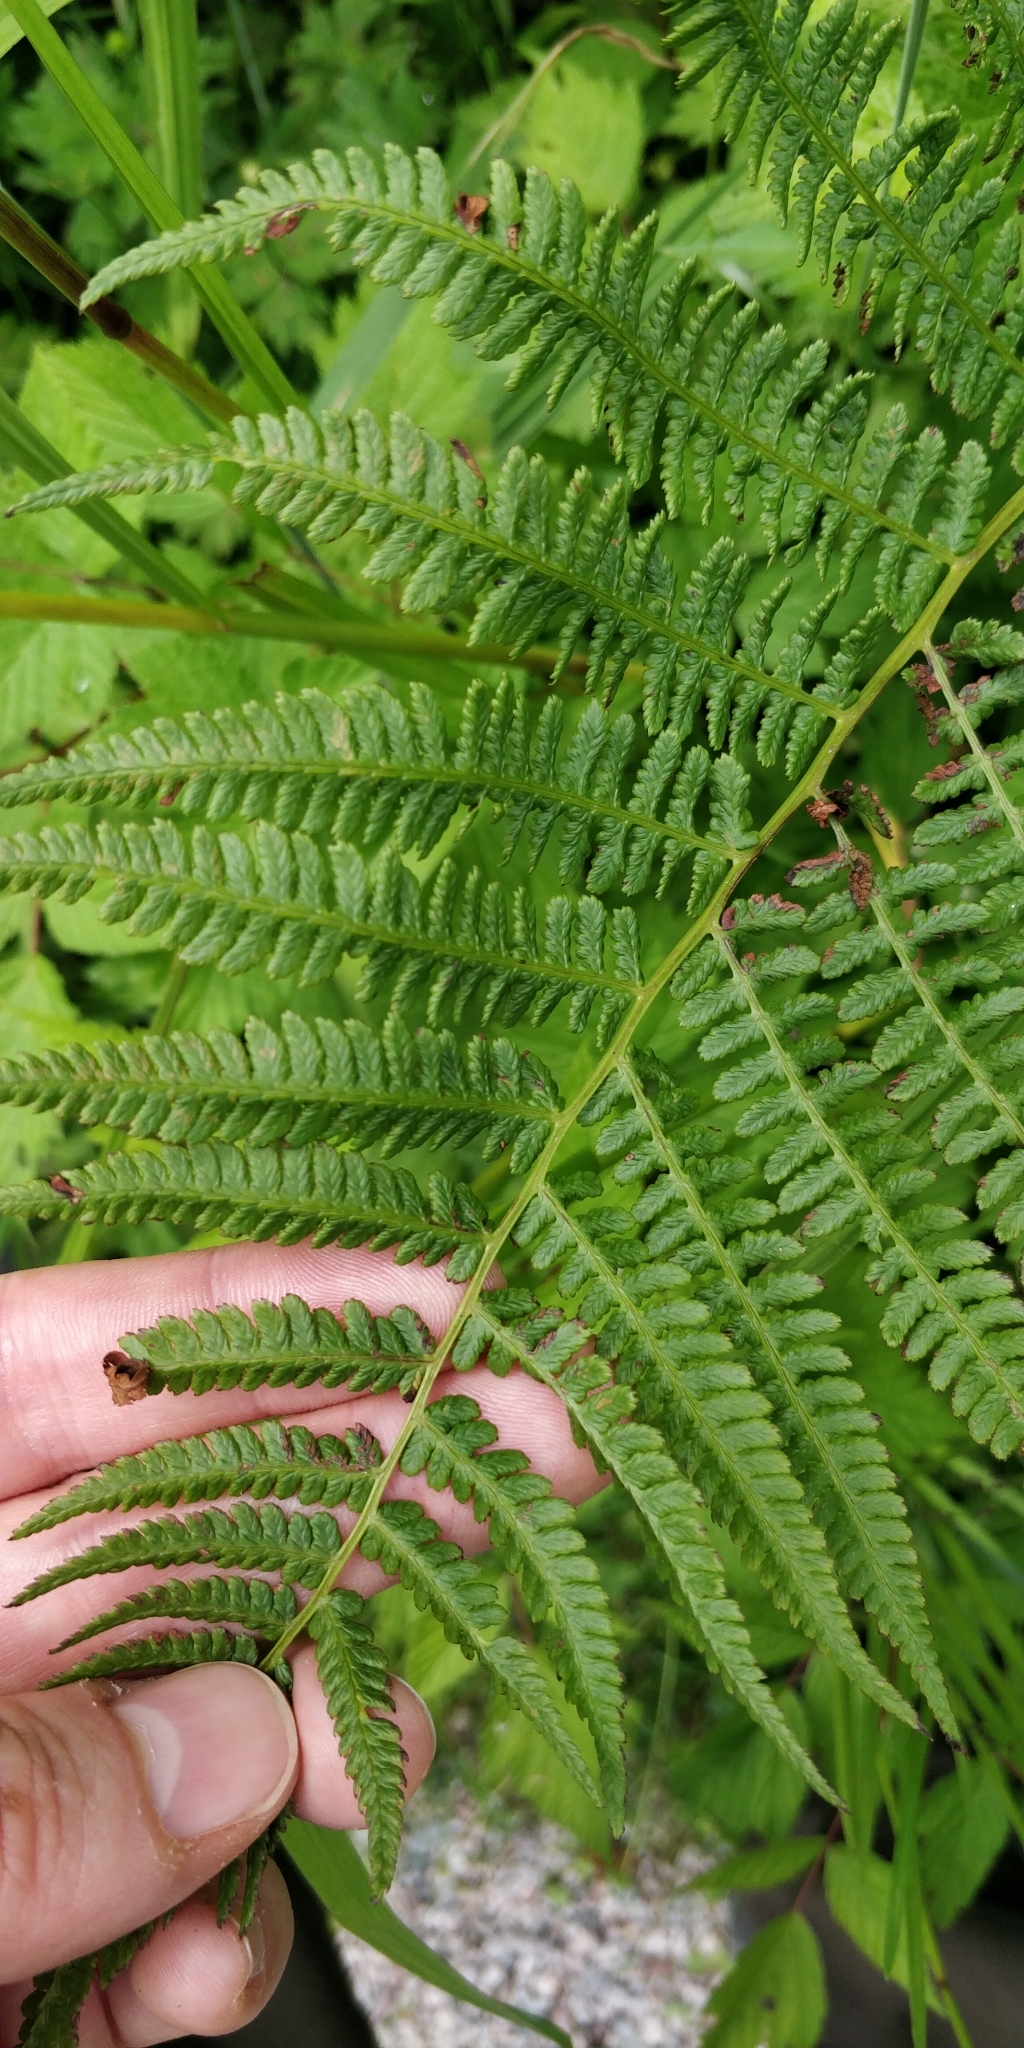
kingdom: Plantae
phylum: Tracheophyta
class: Polypodiopsida
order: Polypodiales
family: Athyriaceae
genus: Athyrium
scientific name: Athyrium filix-femina
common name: Lady fern
